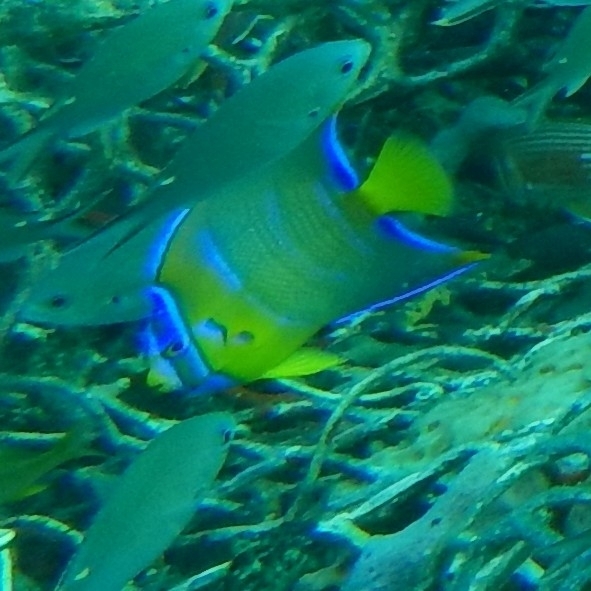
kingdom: Animalia
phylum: Chordata
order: Perciformes
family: Pomacanthidae
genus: Holacanthus
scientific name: Holacanthus ciliaris
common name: Queen angelfish
